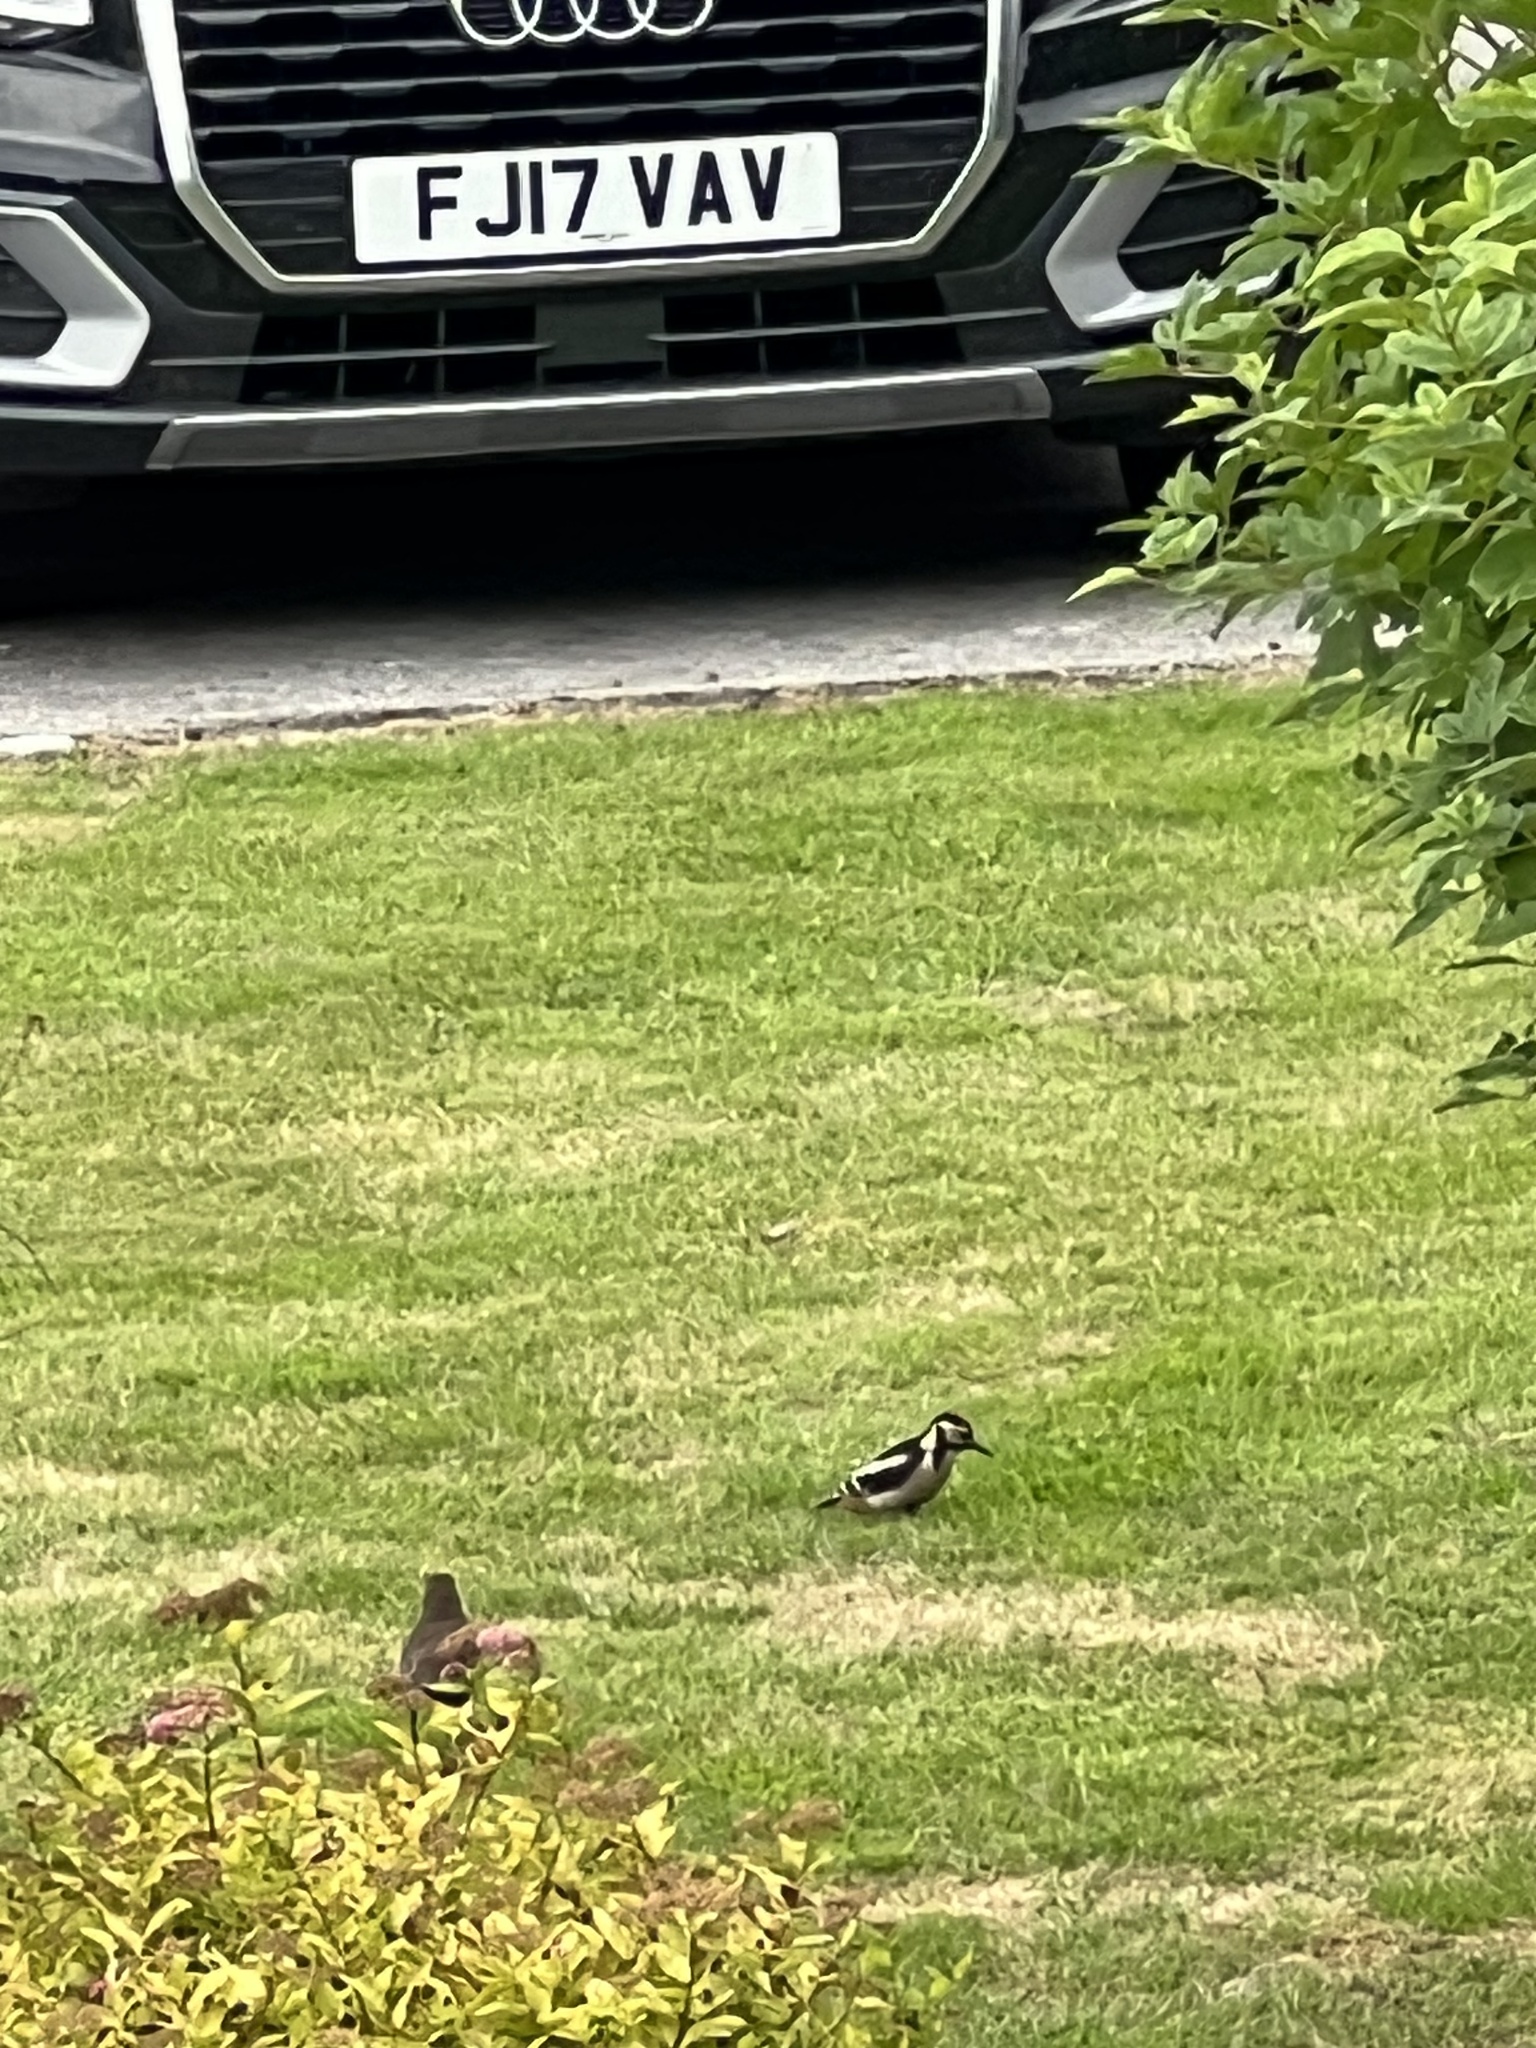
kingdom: Animalia
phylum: Chordata
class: Aves
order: Piciformes
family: Picidae
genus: Dendrocopos
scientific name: Dendrocopos major
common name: Great spotted woodpecker
